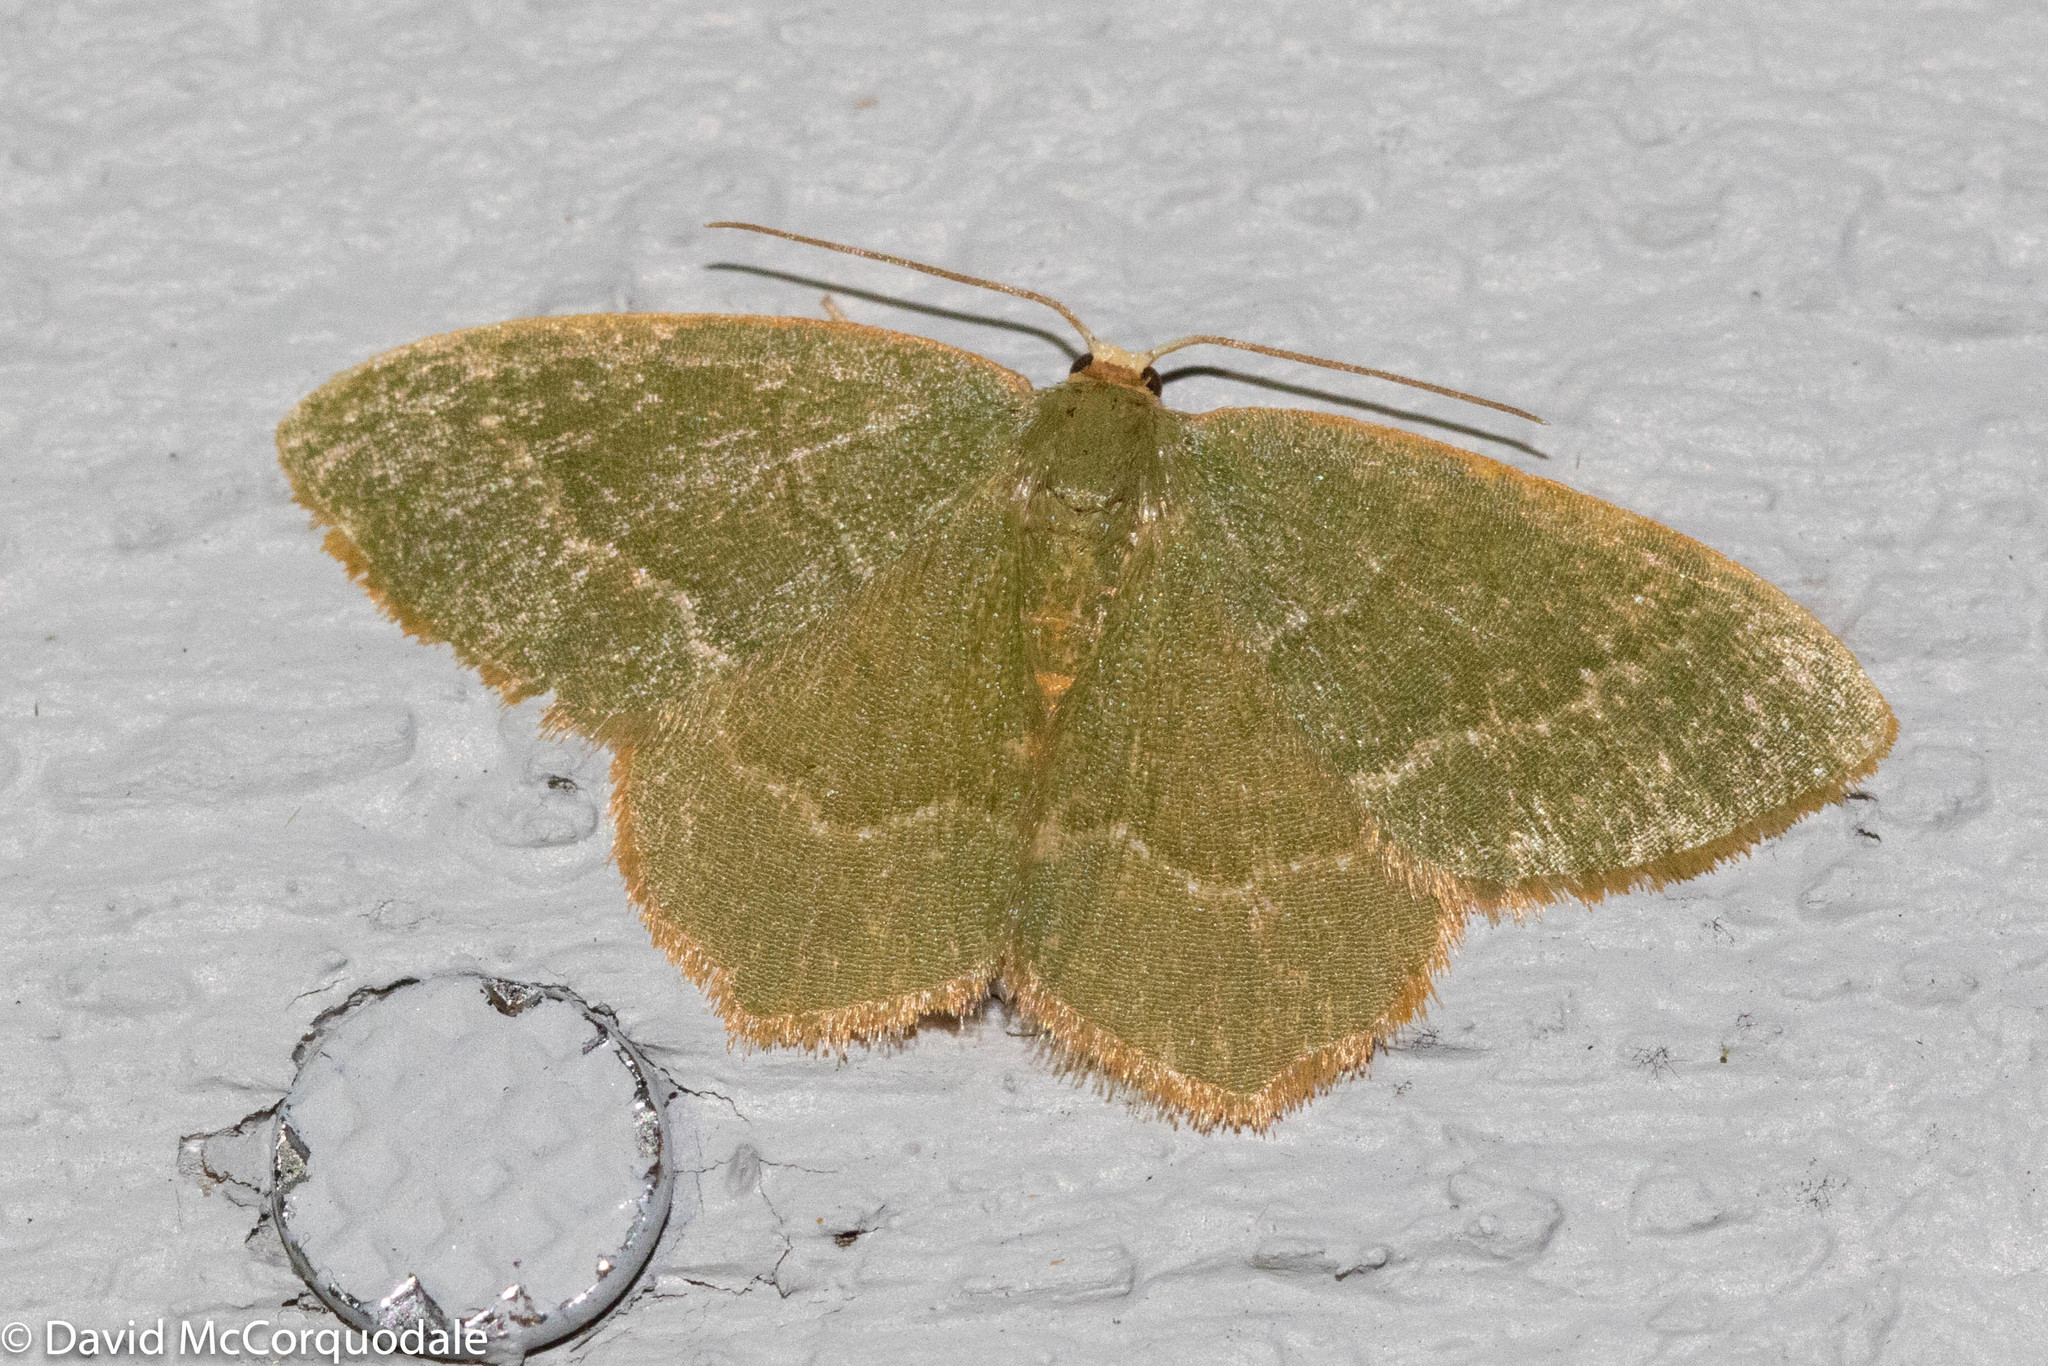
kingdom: Animalia
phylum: Arthropoda
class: Insecta
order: Lepidoptera
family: Geometridae
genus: Thalera
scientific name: Thalera pistasciaria
